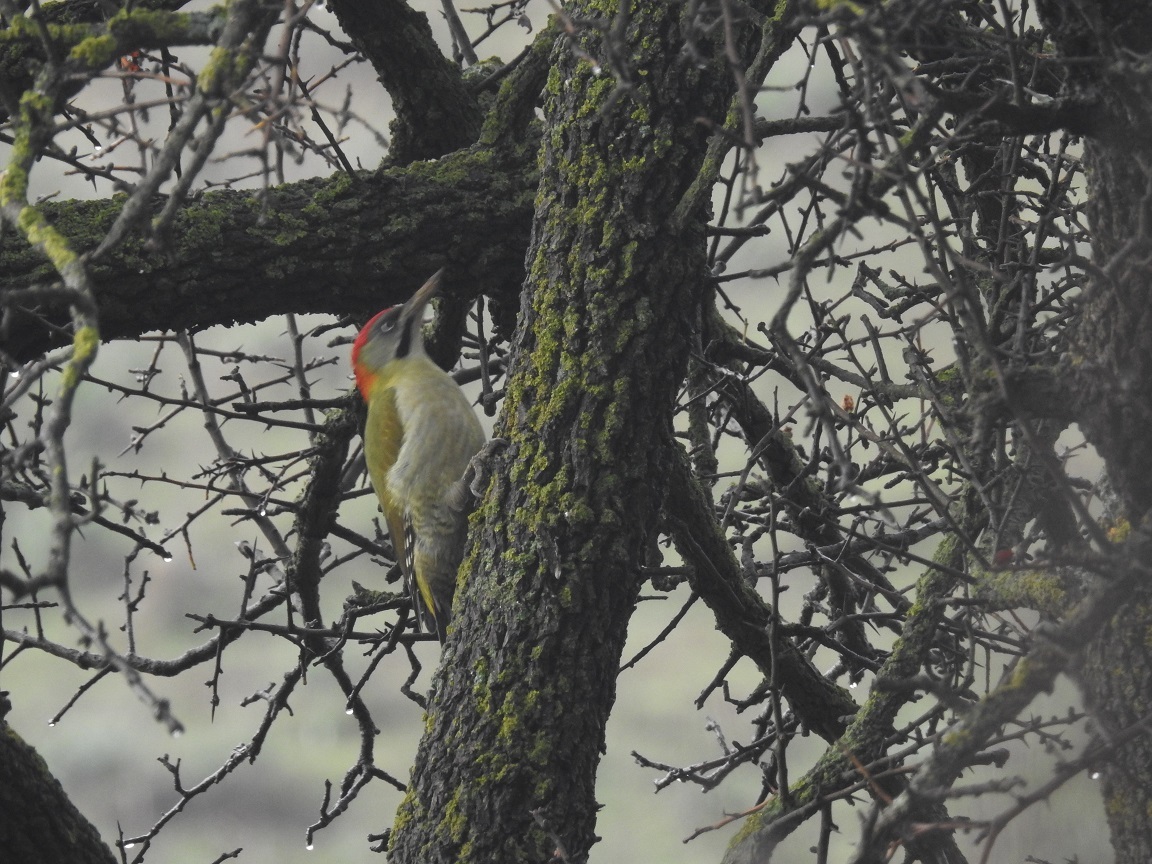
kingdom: Animalia
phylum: Chordata
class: Aves
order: Piciformes
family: Picidae
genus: Picus
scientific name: Picus vaillantii
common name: Levaillant's woodpecker
